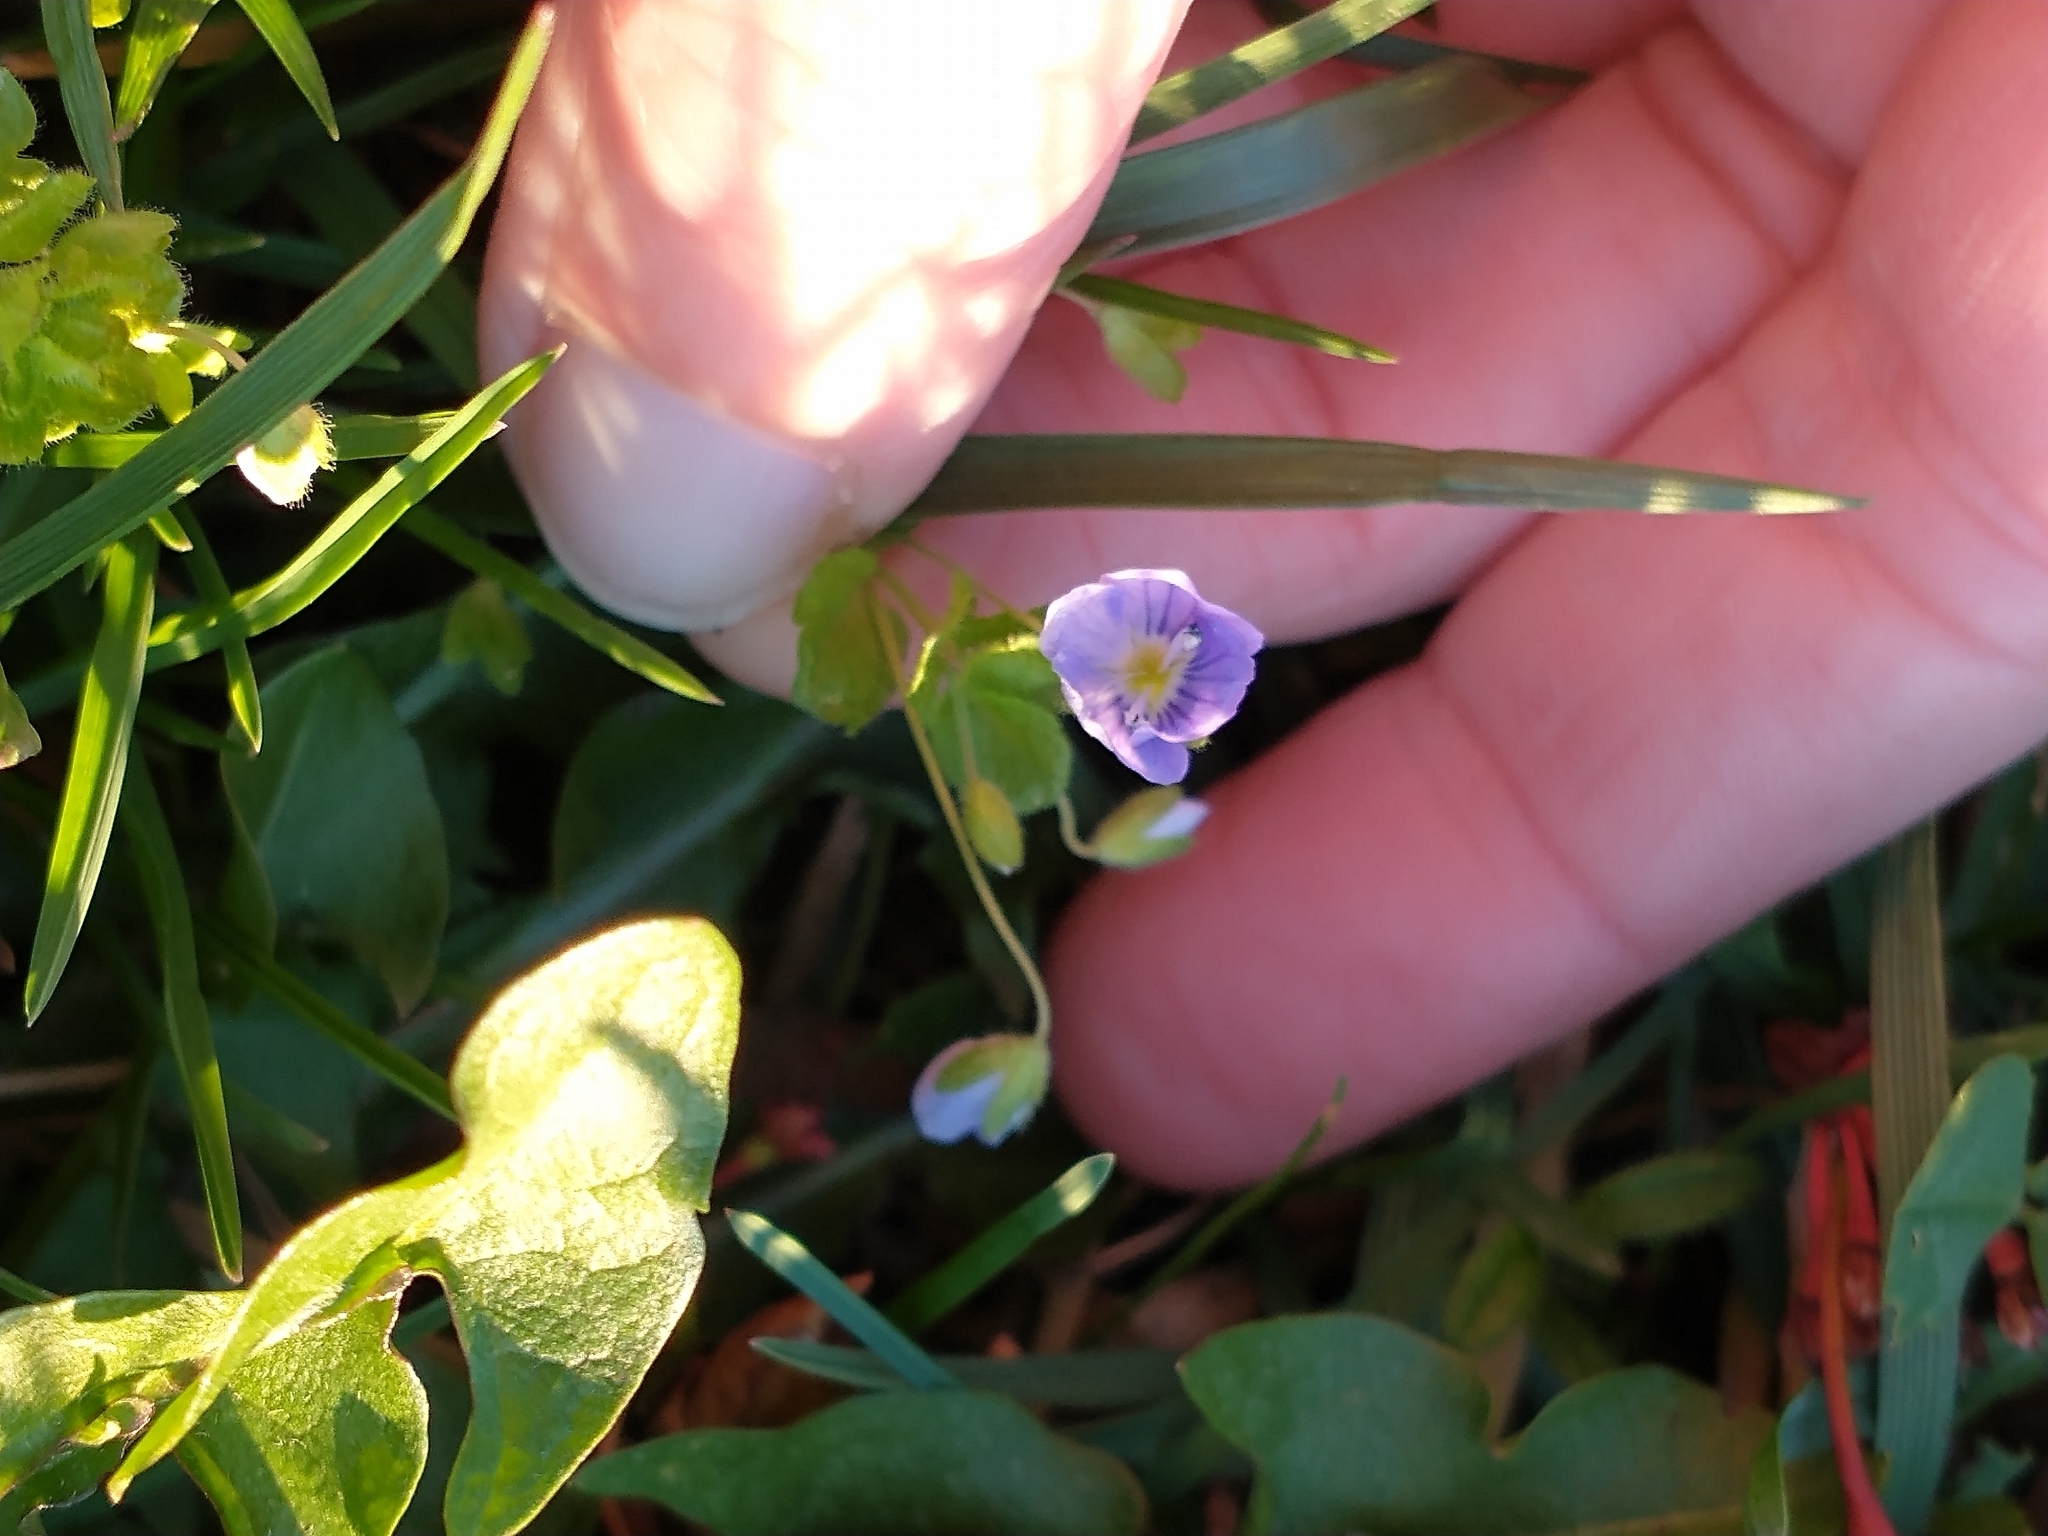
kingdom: Plantae
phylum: Tracheophyta
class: Magnoliopsida
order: Lamiales
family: Plantaginaceae
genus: Veronica
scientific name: Veronica persica
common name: Common field-speedwell
